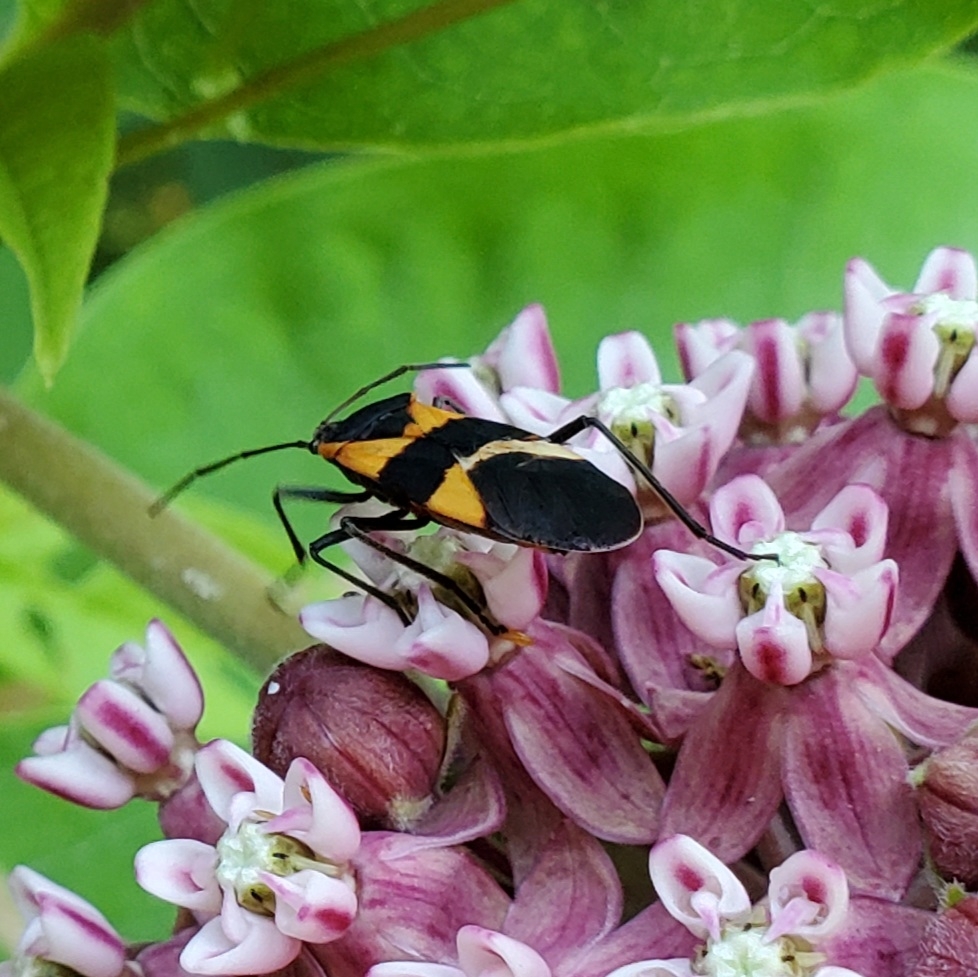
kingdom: Animalia
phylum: Arthropoda
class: Insecta
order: Hemiptera
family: Lygaeidae
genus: Oncopeltus
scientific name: Oncopeltus fasciatus
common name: Large milkweed bug
